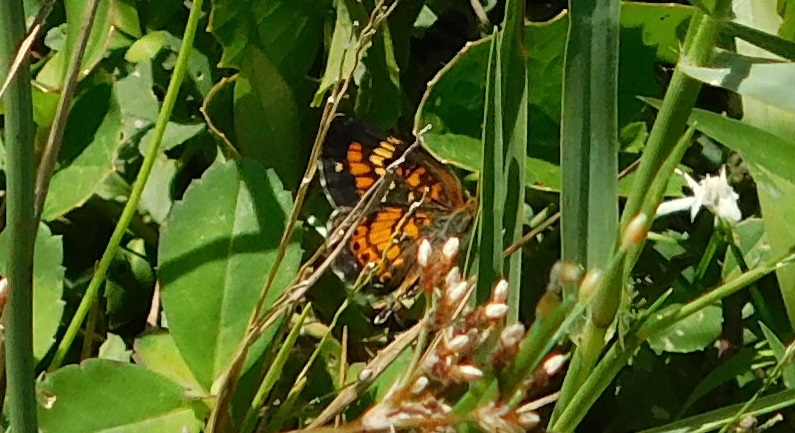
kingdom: Animalia
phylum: Arthropoda
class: Insecta
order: Lepidoptera
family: Nymphalidae
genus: Phyciodes
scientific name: Phyciodes phaon
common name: Phaon crescent
